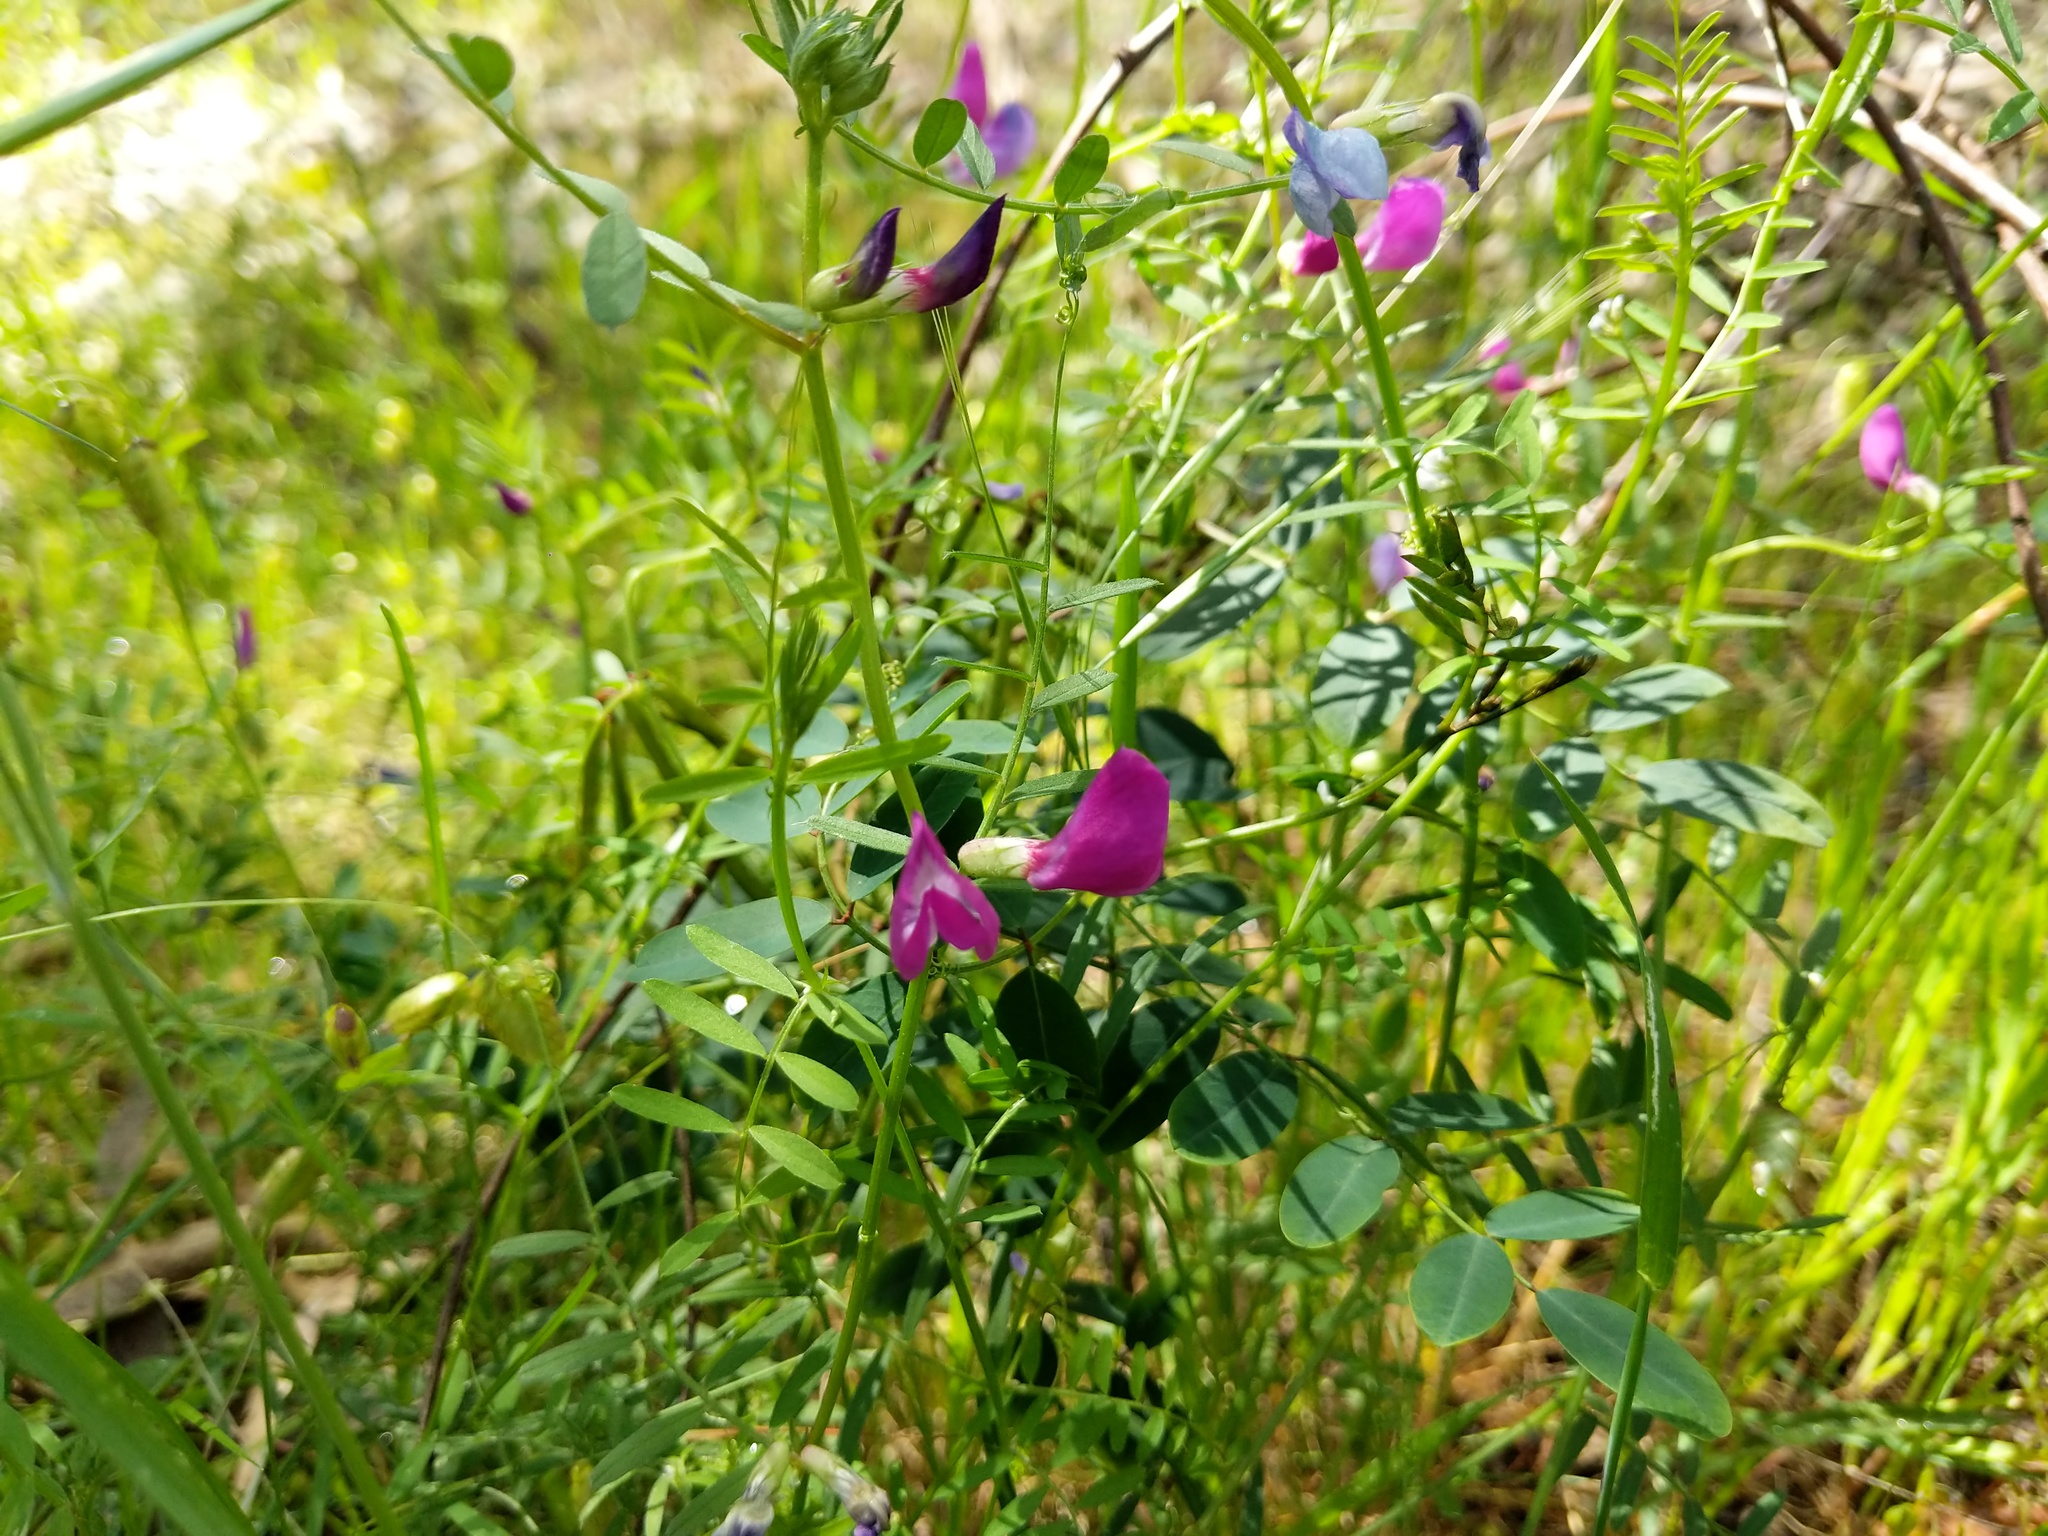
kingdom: Plantae
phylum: Tracheophyta
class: Magnoliopsida
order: Fabales
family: Fabaceae
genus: Vicia
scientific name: Vicia sativa
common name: Garden vetch
